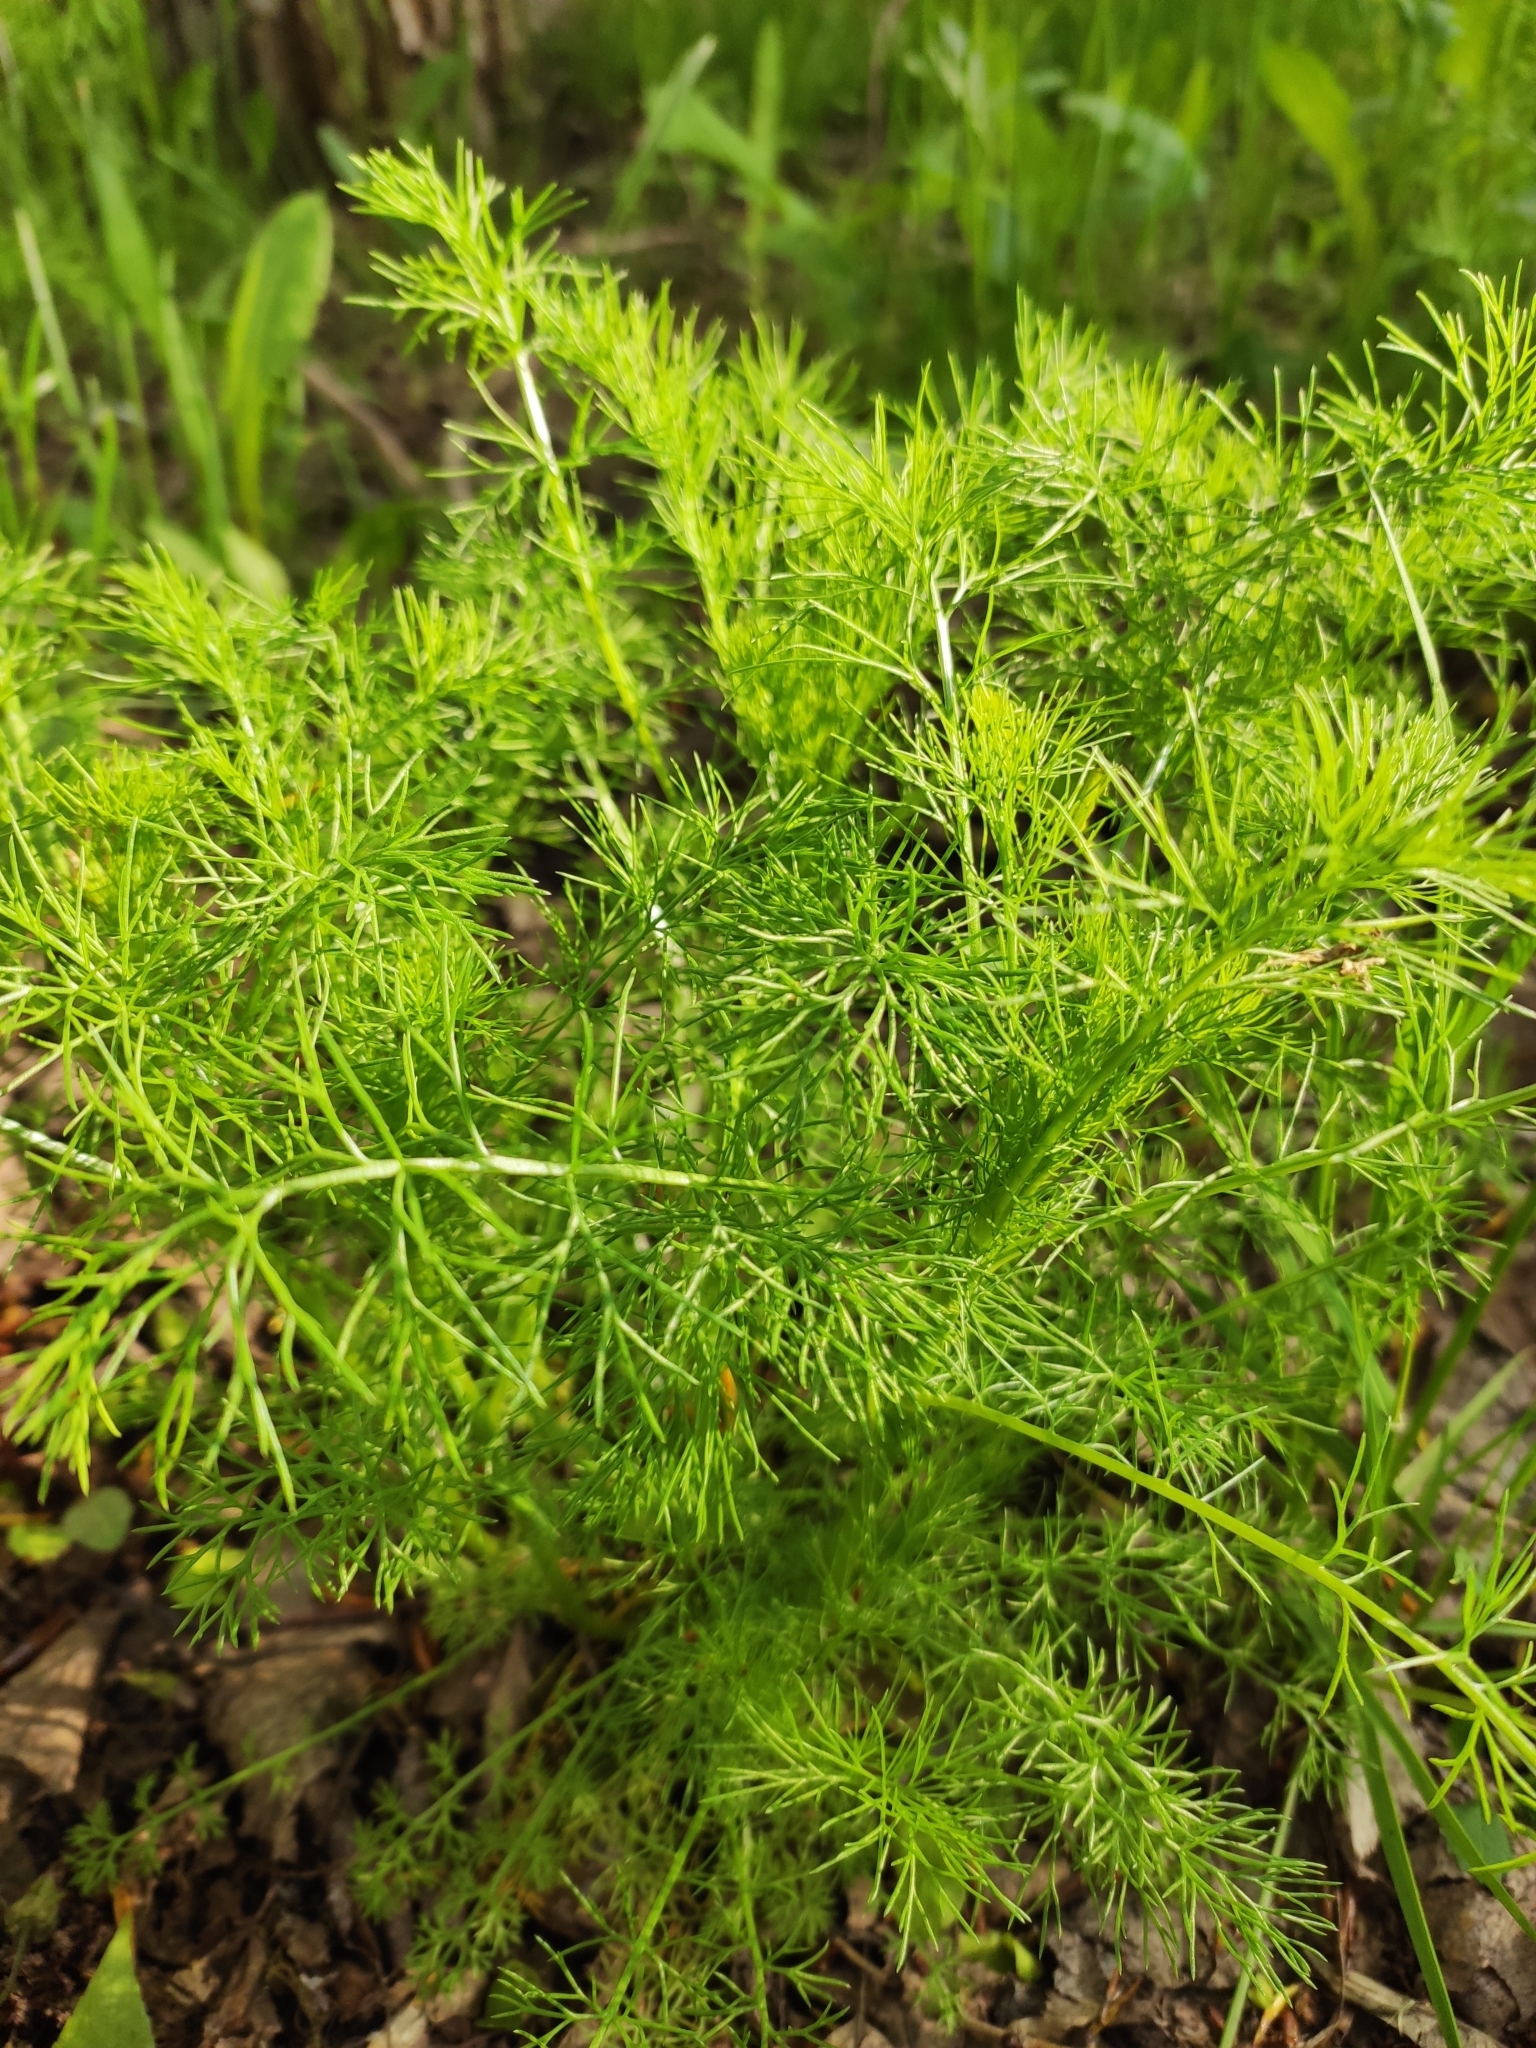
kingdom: Plantae
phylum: Tracheophyta
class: Magnoliopsida
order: Asterales
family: Asteraceae
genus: Tripleurospermum
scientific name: Tripleurospermum inodorum
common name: Scentless mayweed
